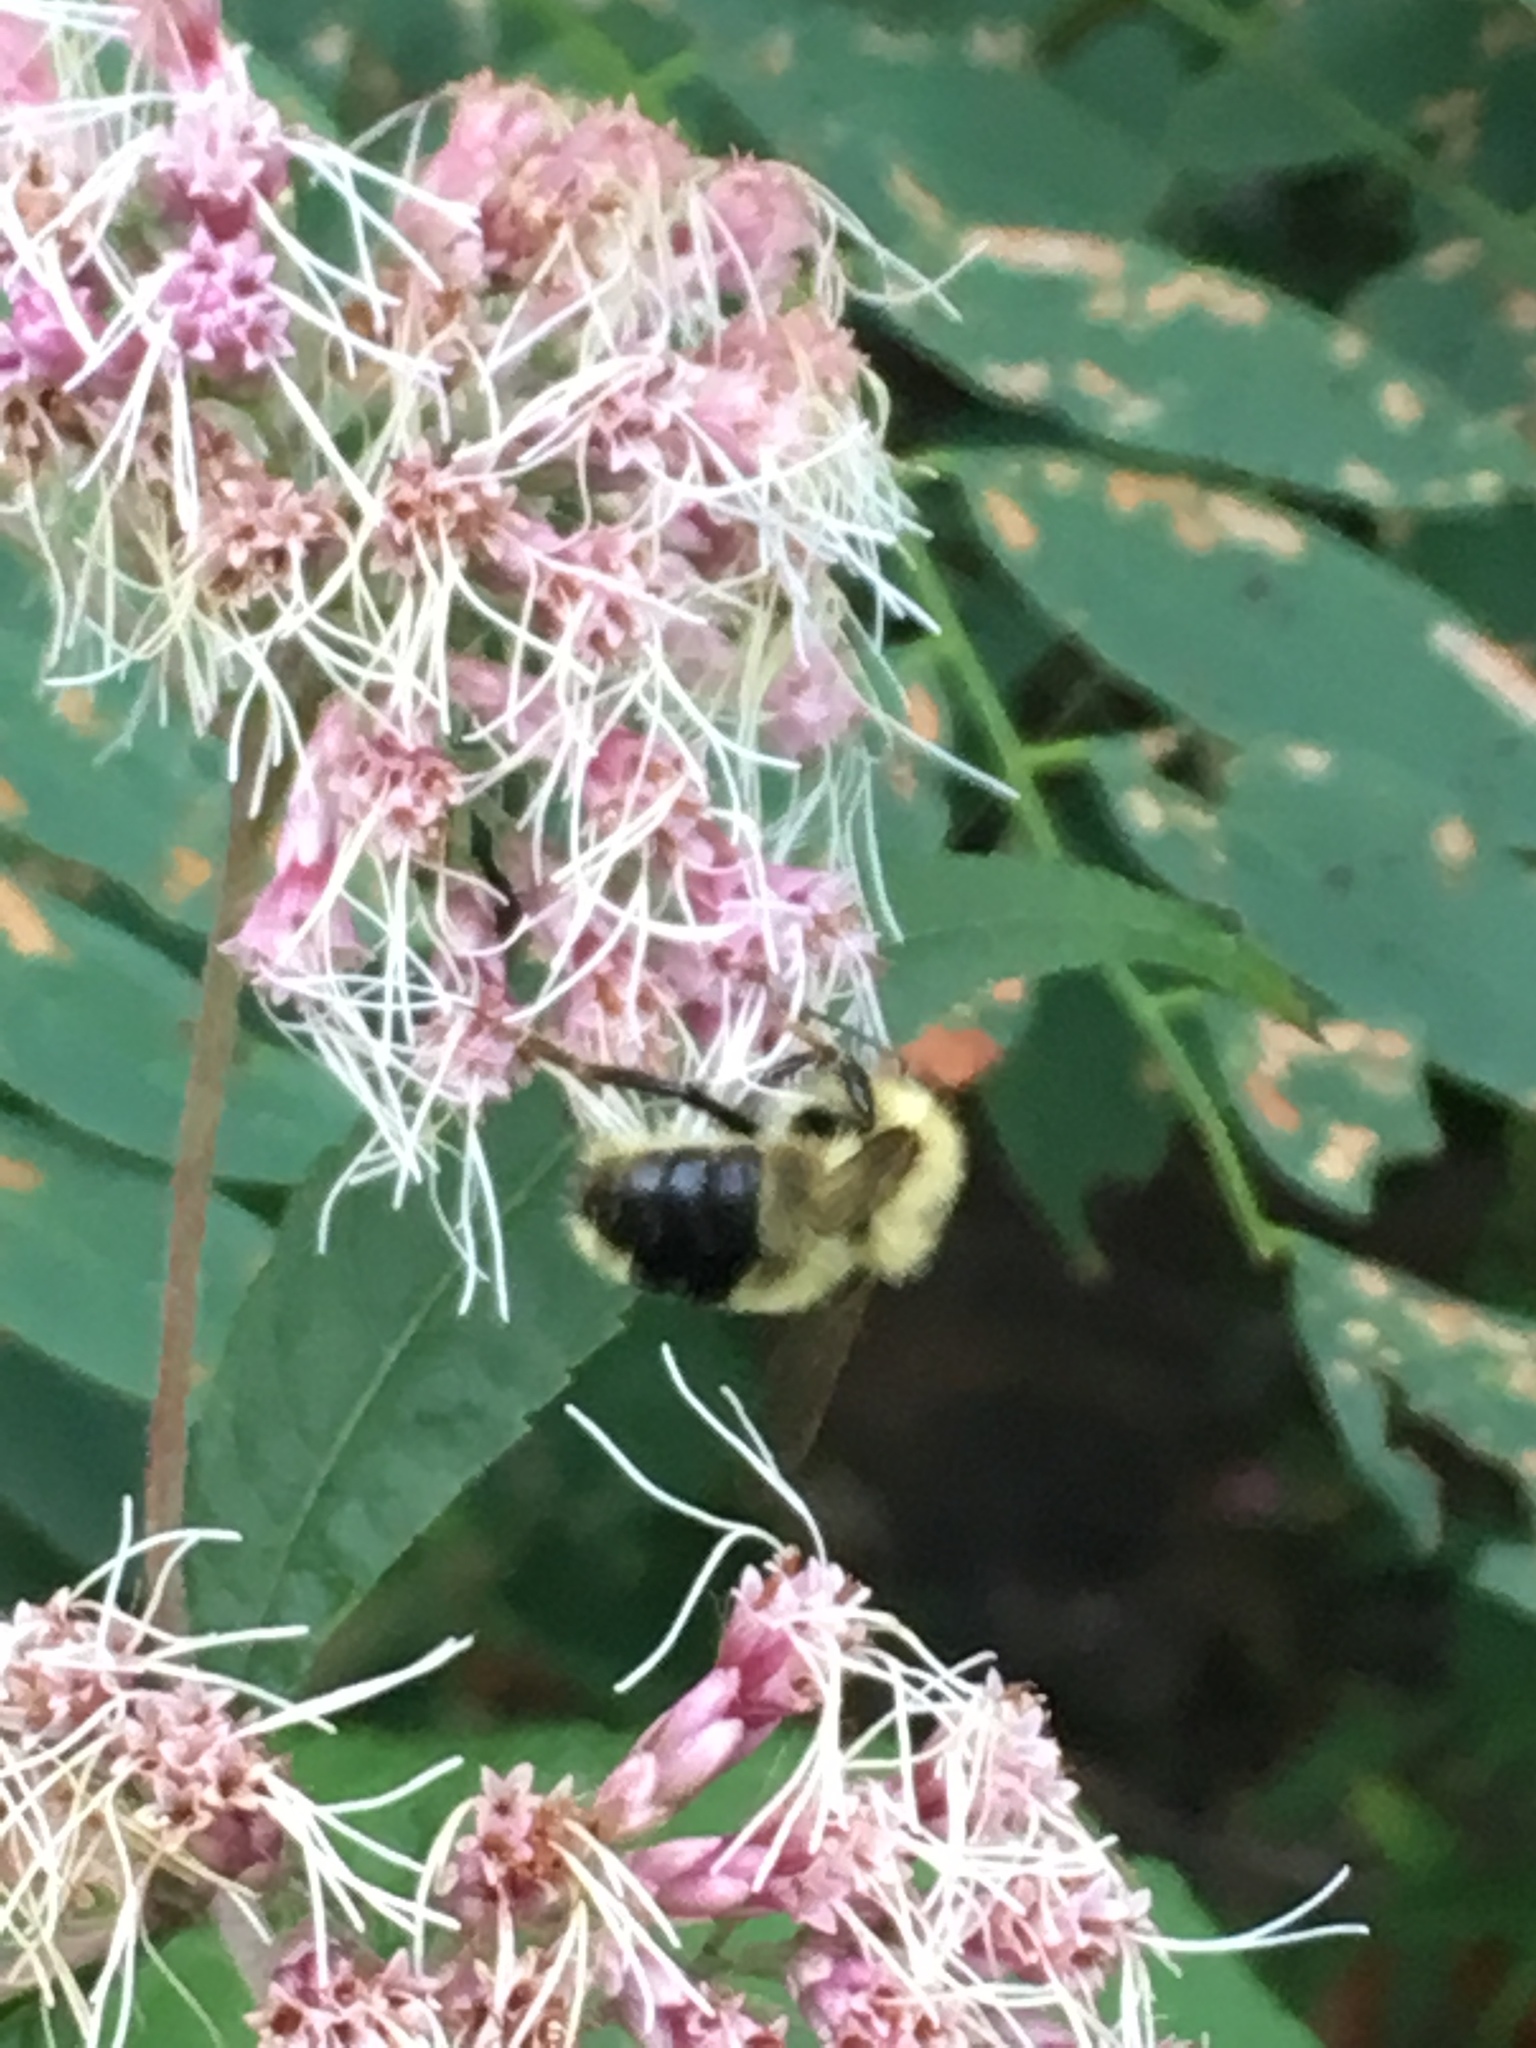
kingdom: Animalia
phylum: Arthropoda
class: Insecta
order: Hymenoptera
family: Apidae
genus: Pyrobombus
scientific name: Pyrobombus
